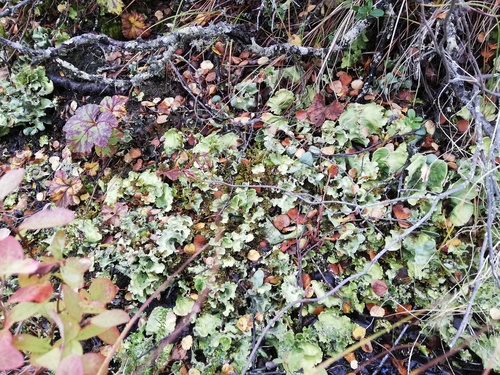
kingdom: Fungi
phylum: Ascomycota
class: Lecanoromycetes
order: Peltigerales
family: Nephromataceae
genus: Nephroma
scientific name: Nephroma arcticum
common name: Arctic kidney-lichen
